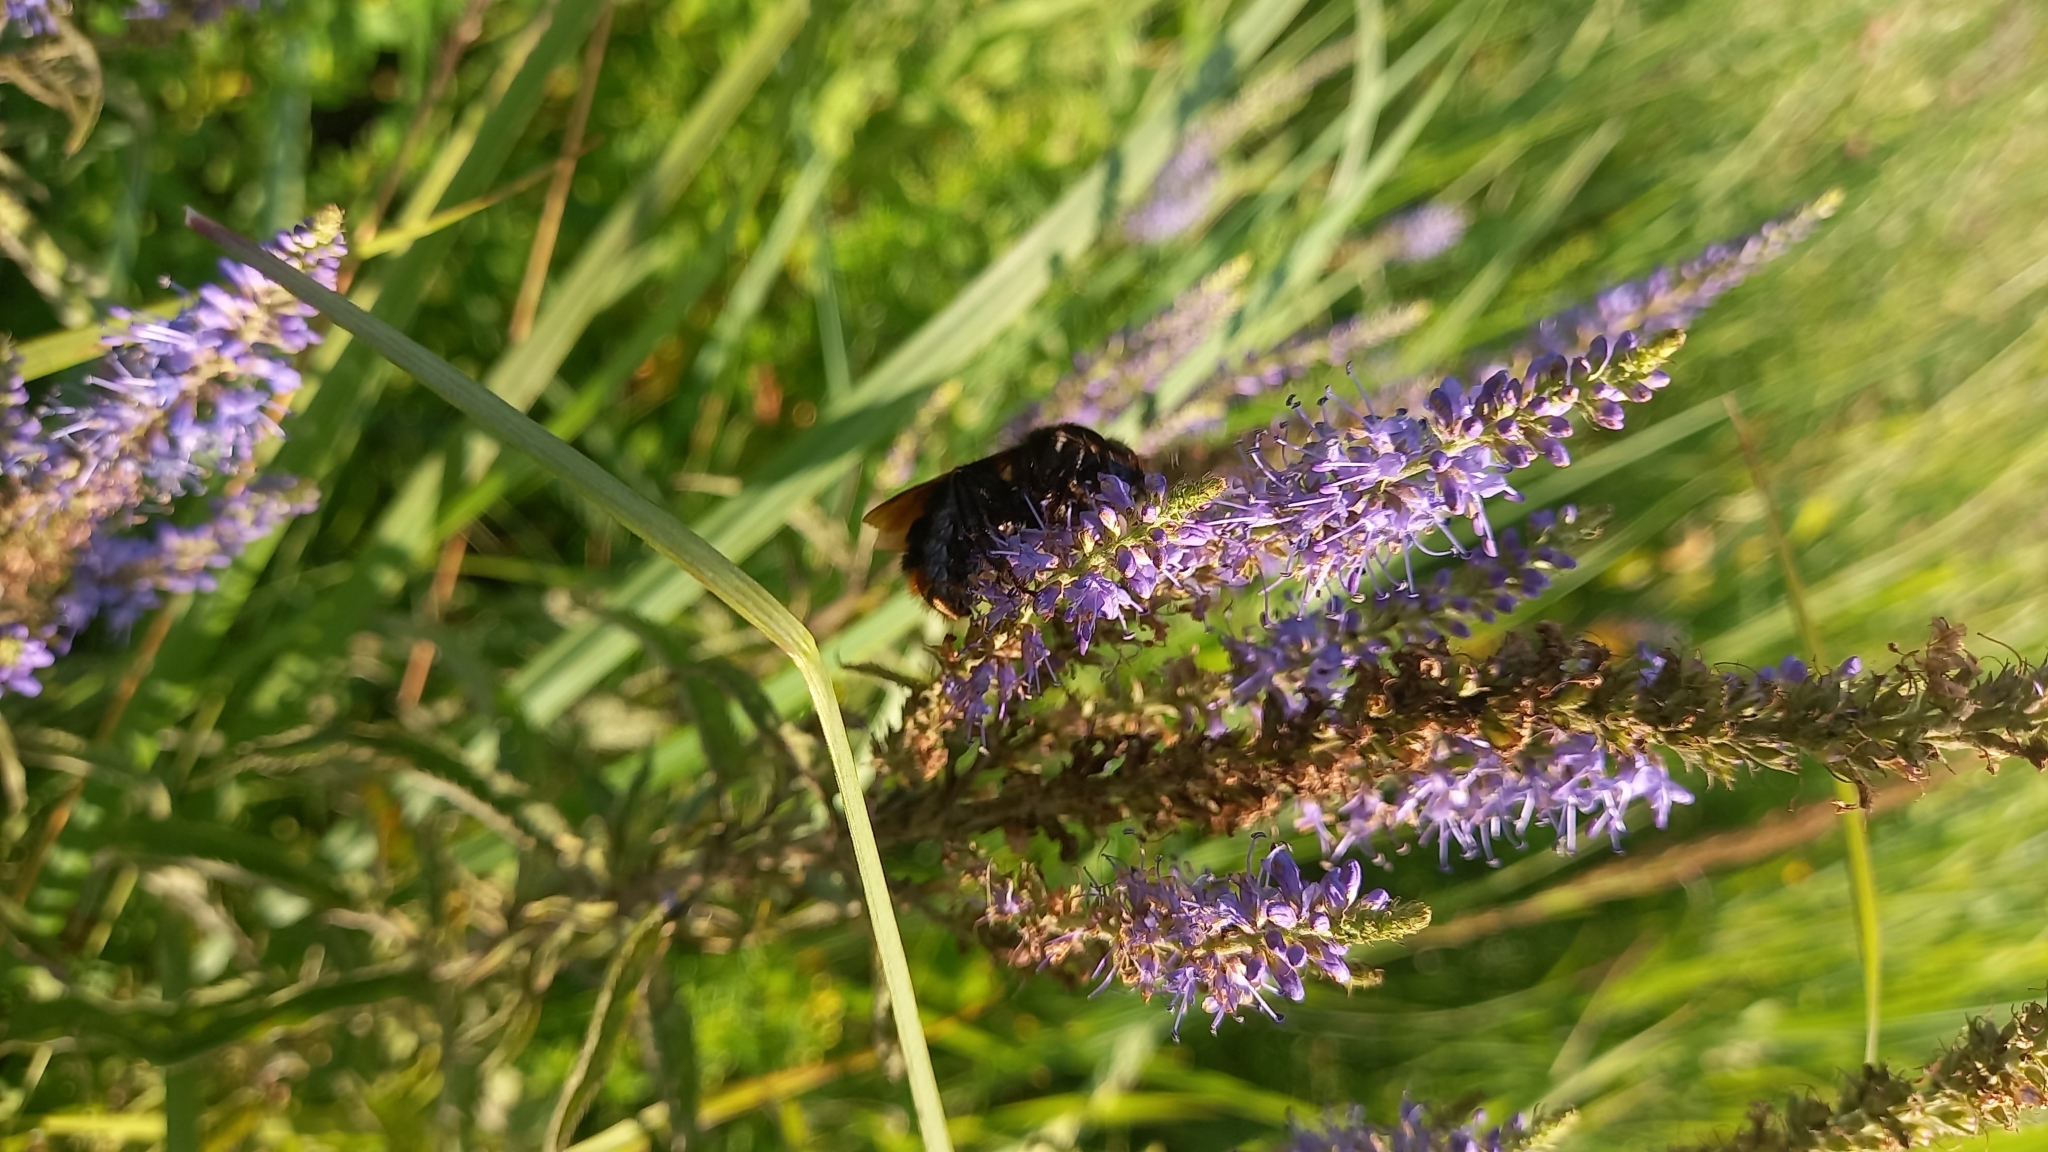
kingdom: Animalia
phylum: Arthropoda
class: Insecta
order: Hymenoptera
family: Apidae
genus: Bombus
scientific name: Bombus rupestris
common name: Hill cuckoo-bee
